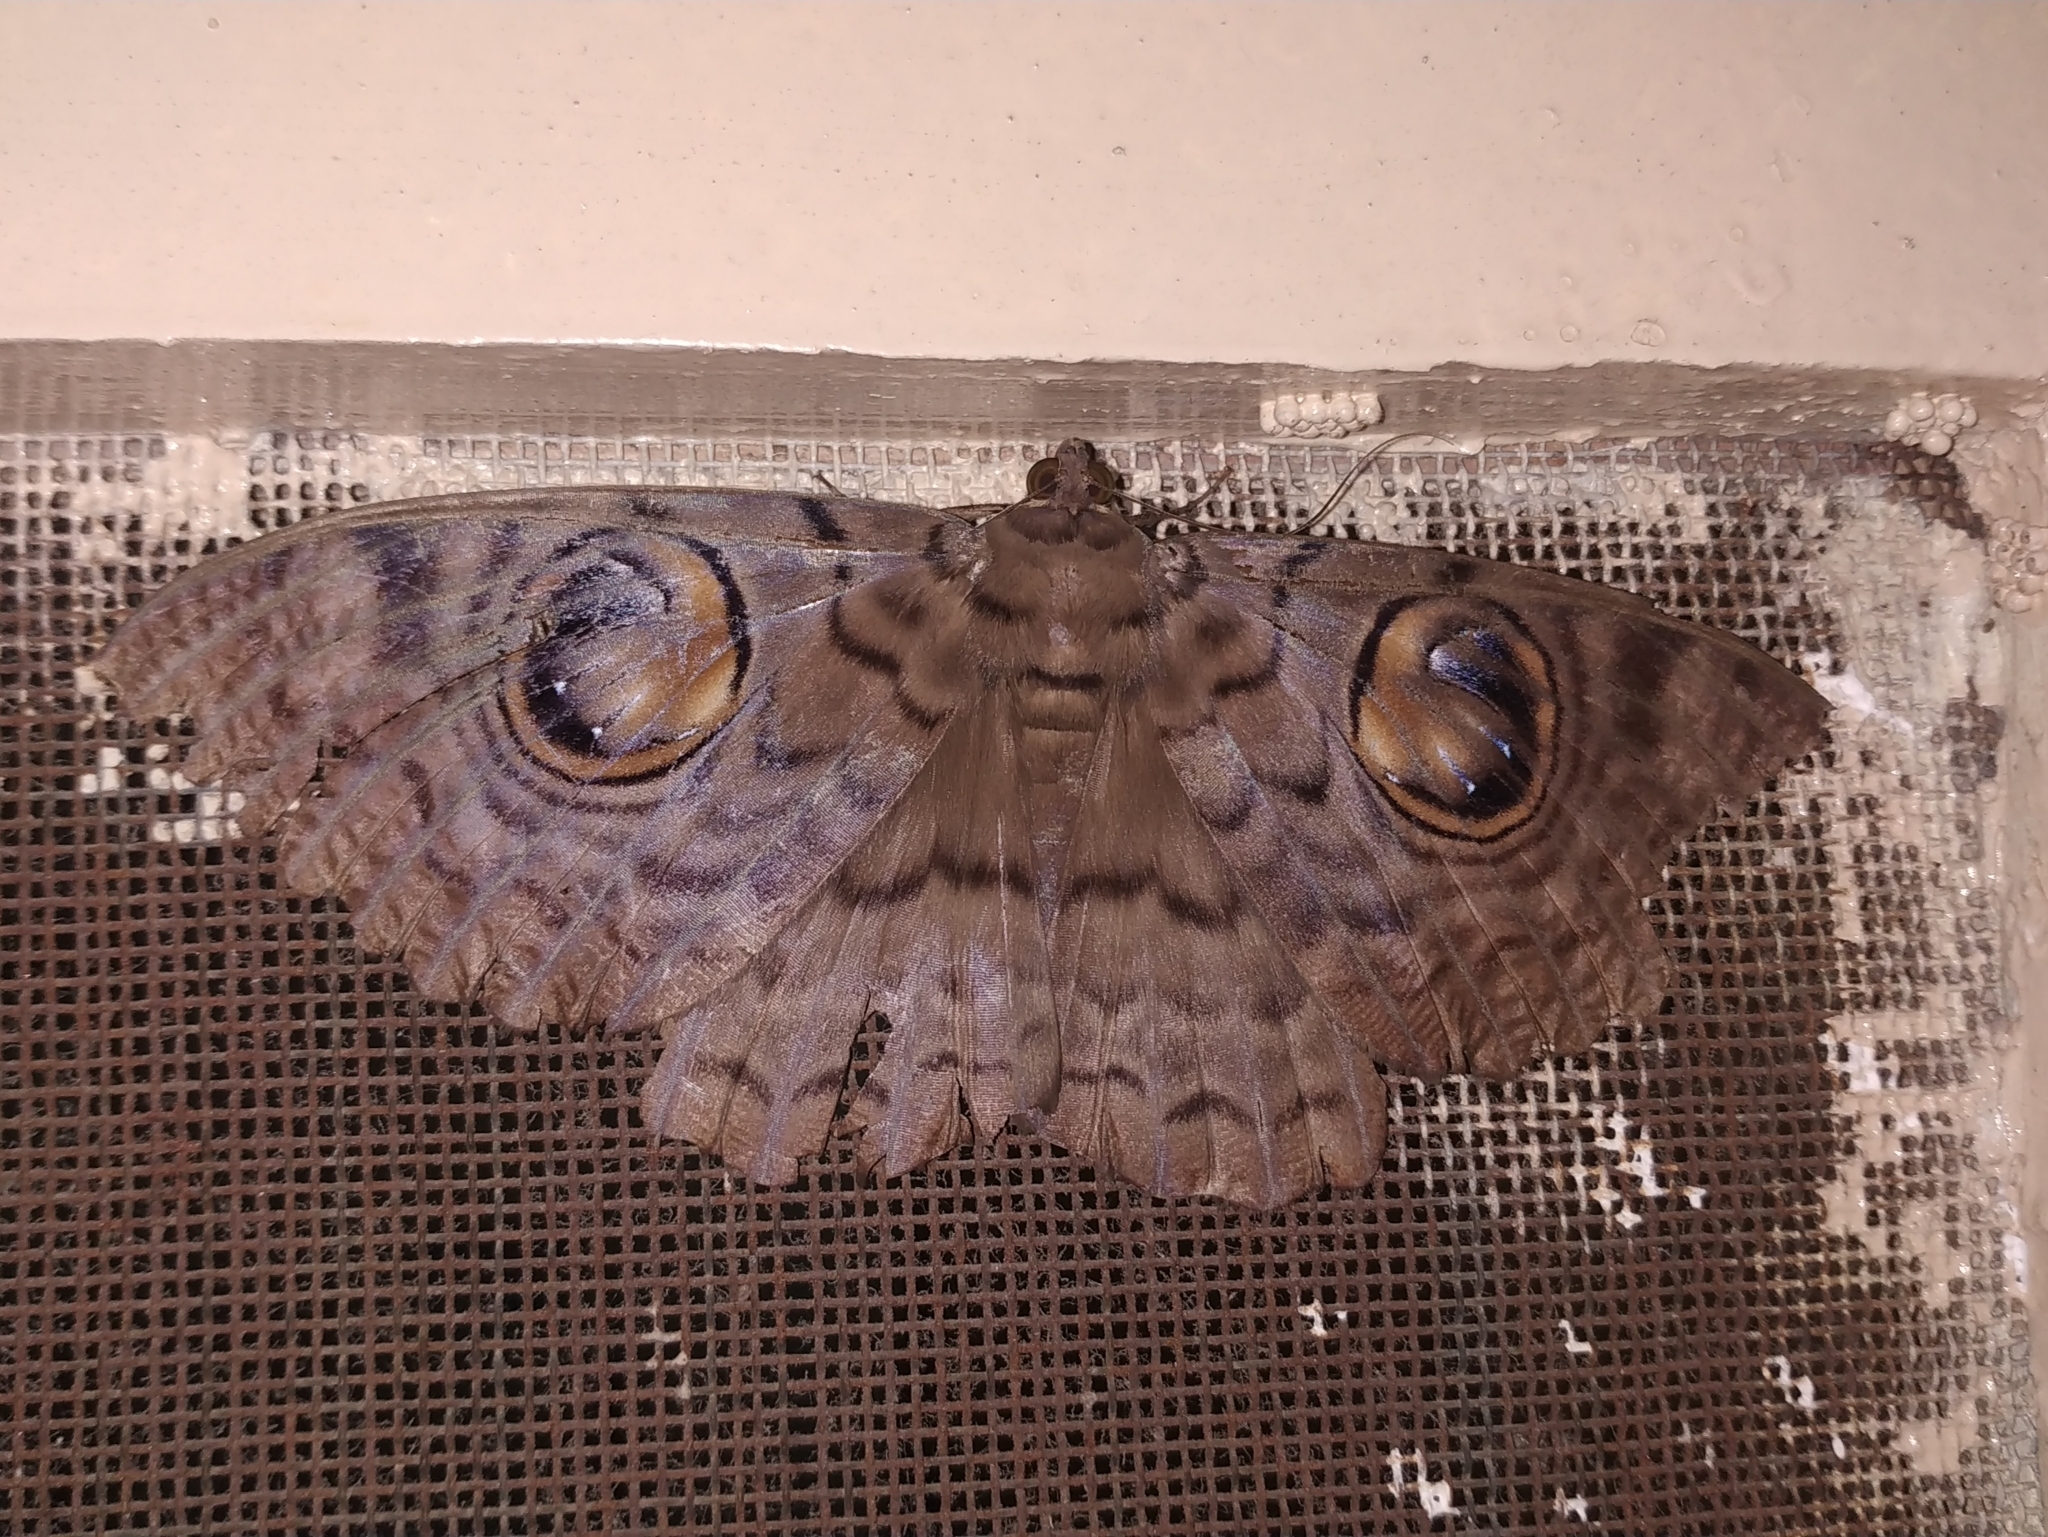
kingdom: Animalia
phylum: Arthropoda
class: Insecta
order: Lepidoptera
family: Erebidae
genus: Erebus
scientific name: Erebus macrops
